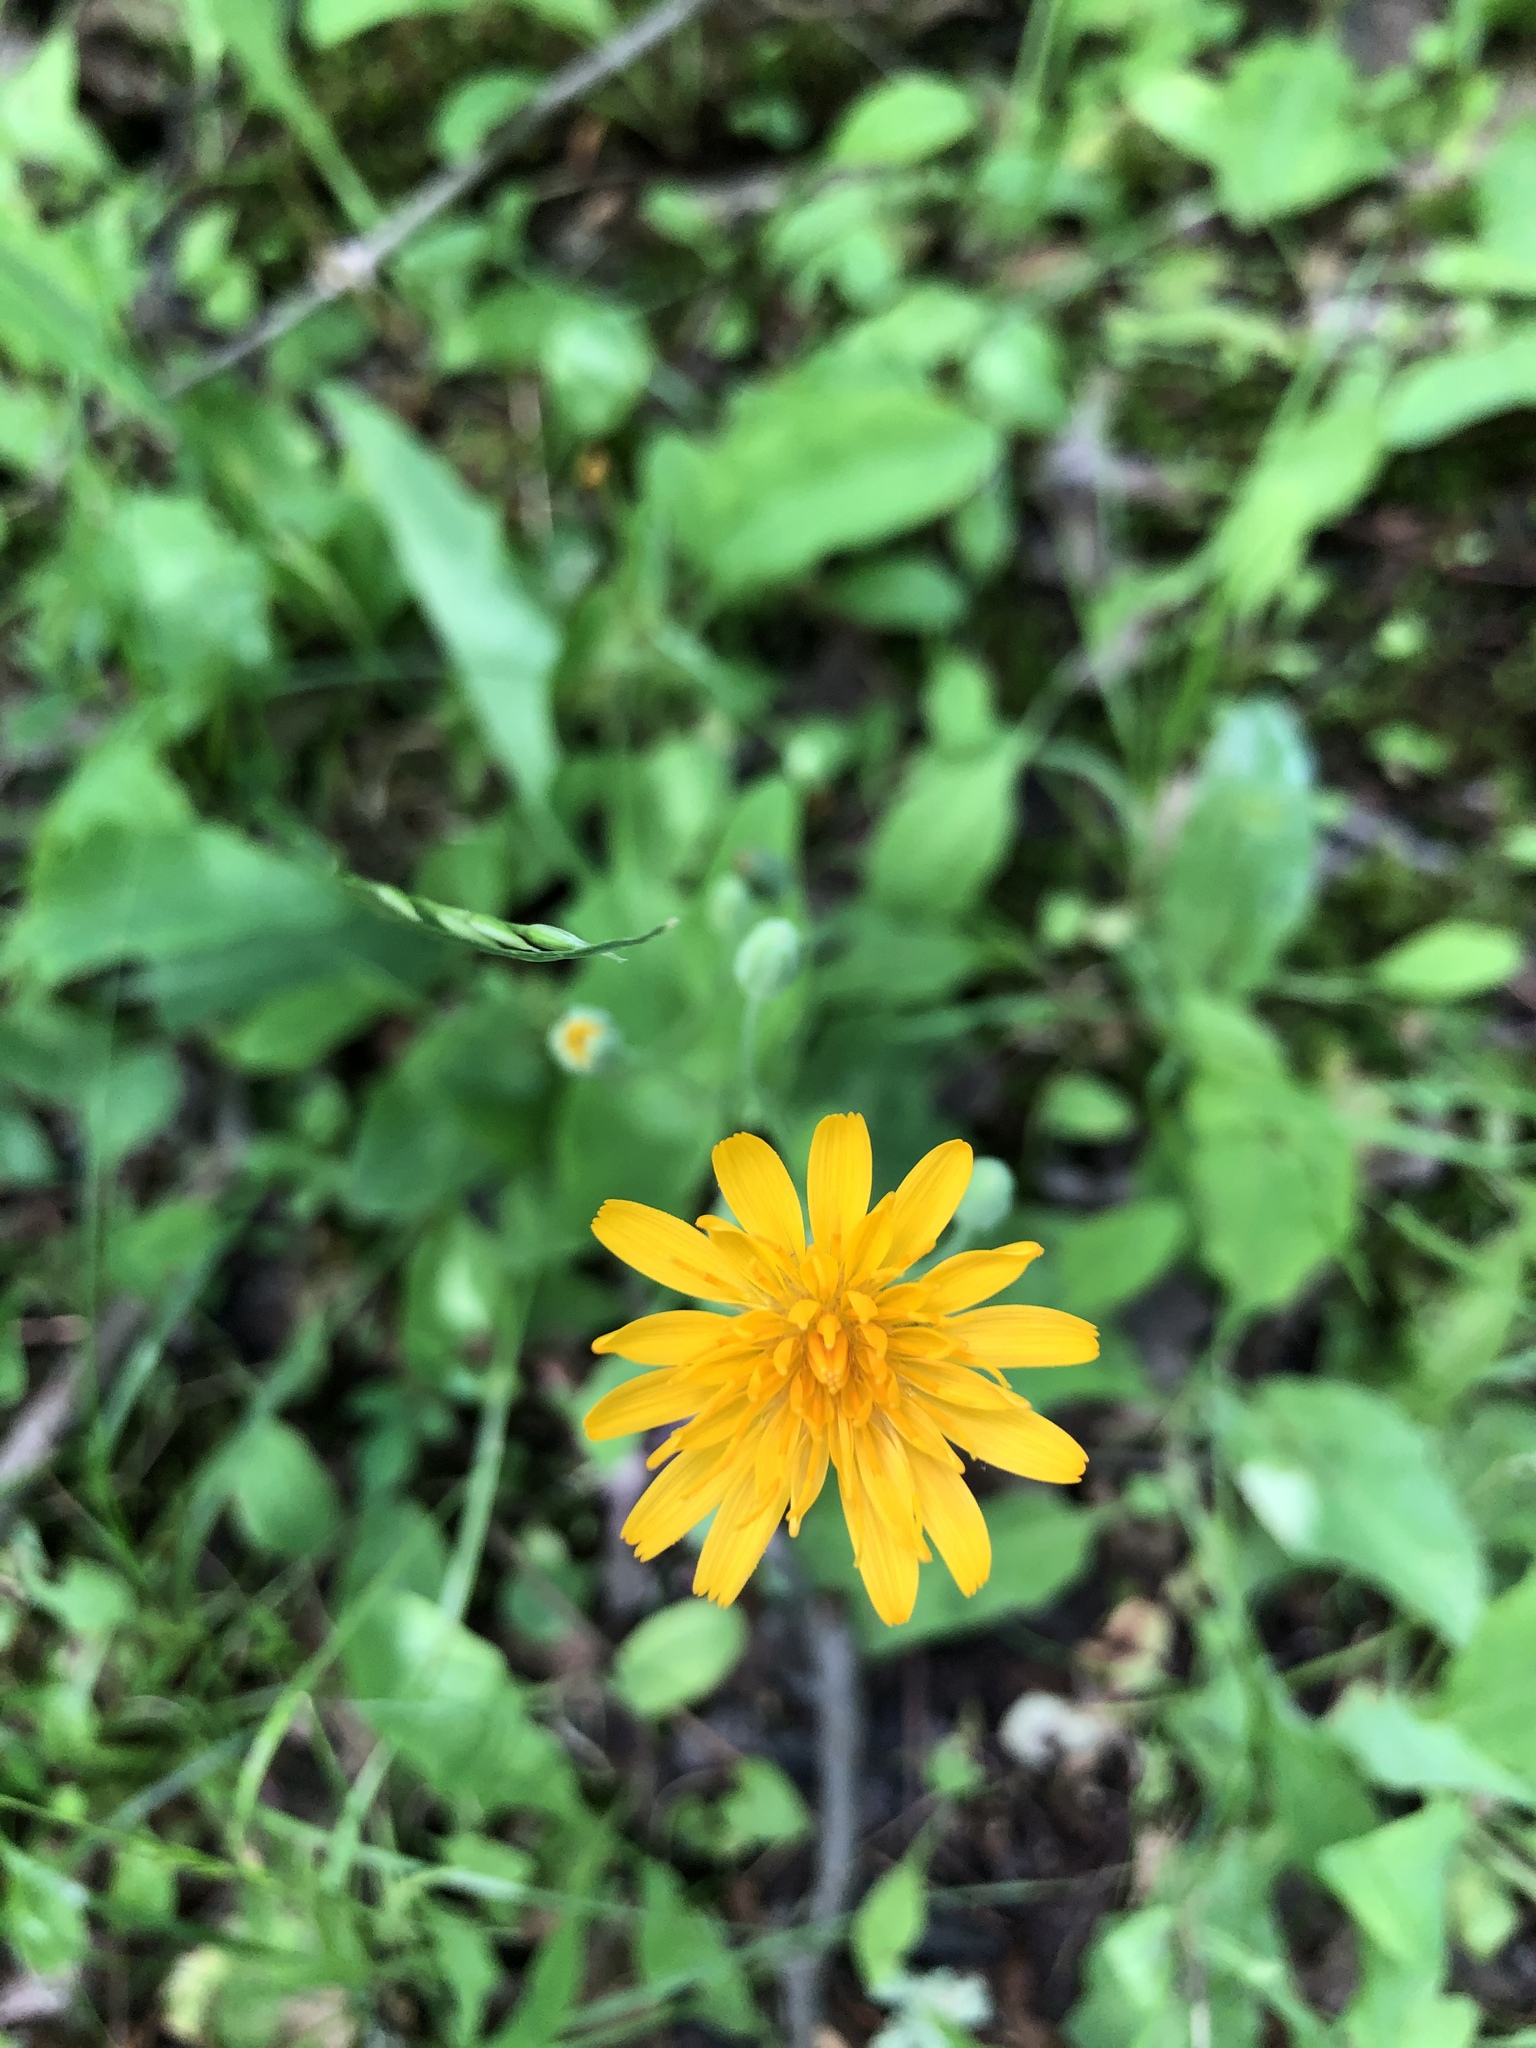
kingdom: Plantae
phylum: Tracheophyta
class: Magnoliopsida
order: Asterales
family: Asteraceae
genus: Krigia
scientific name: Krigia biflora
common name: Orange dwarf-dandelion
